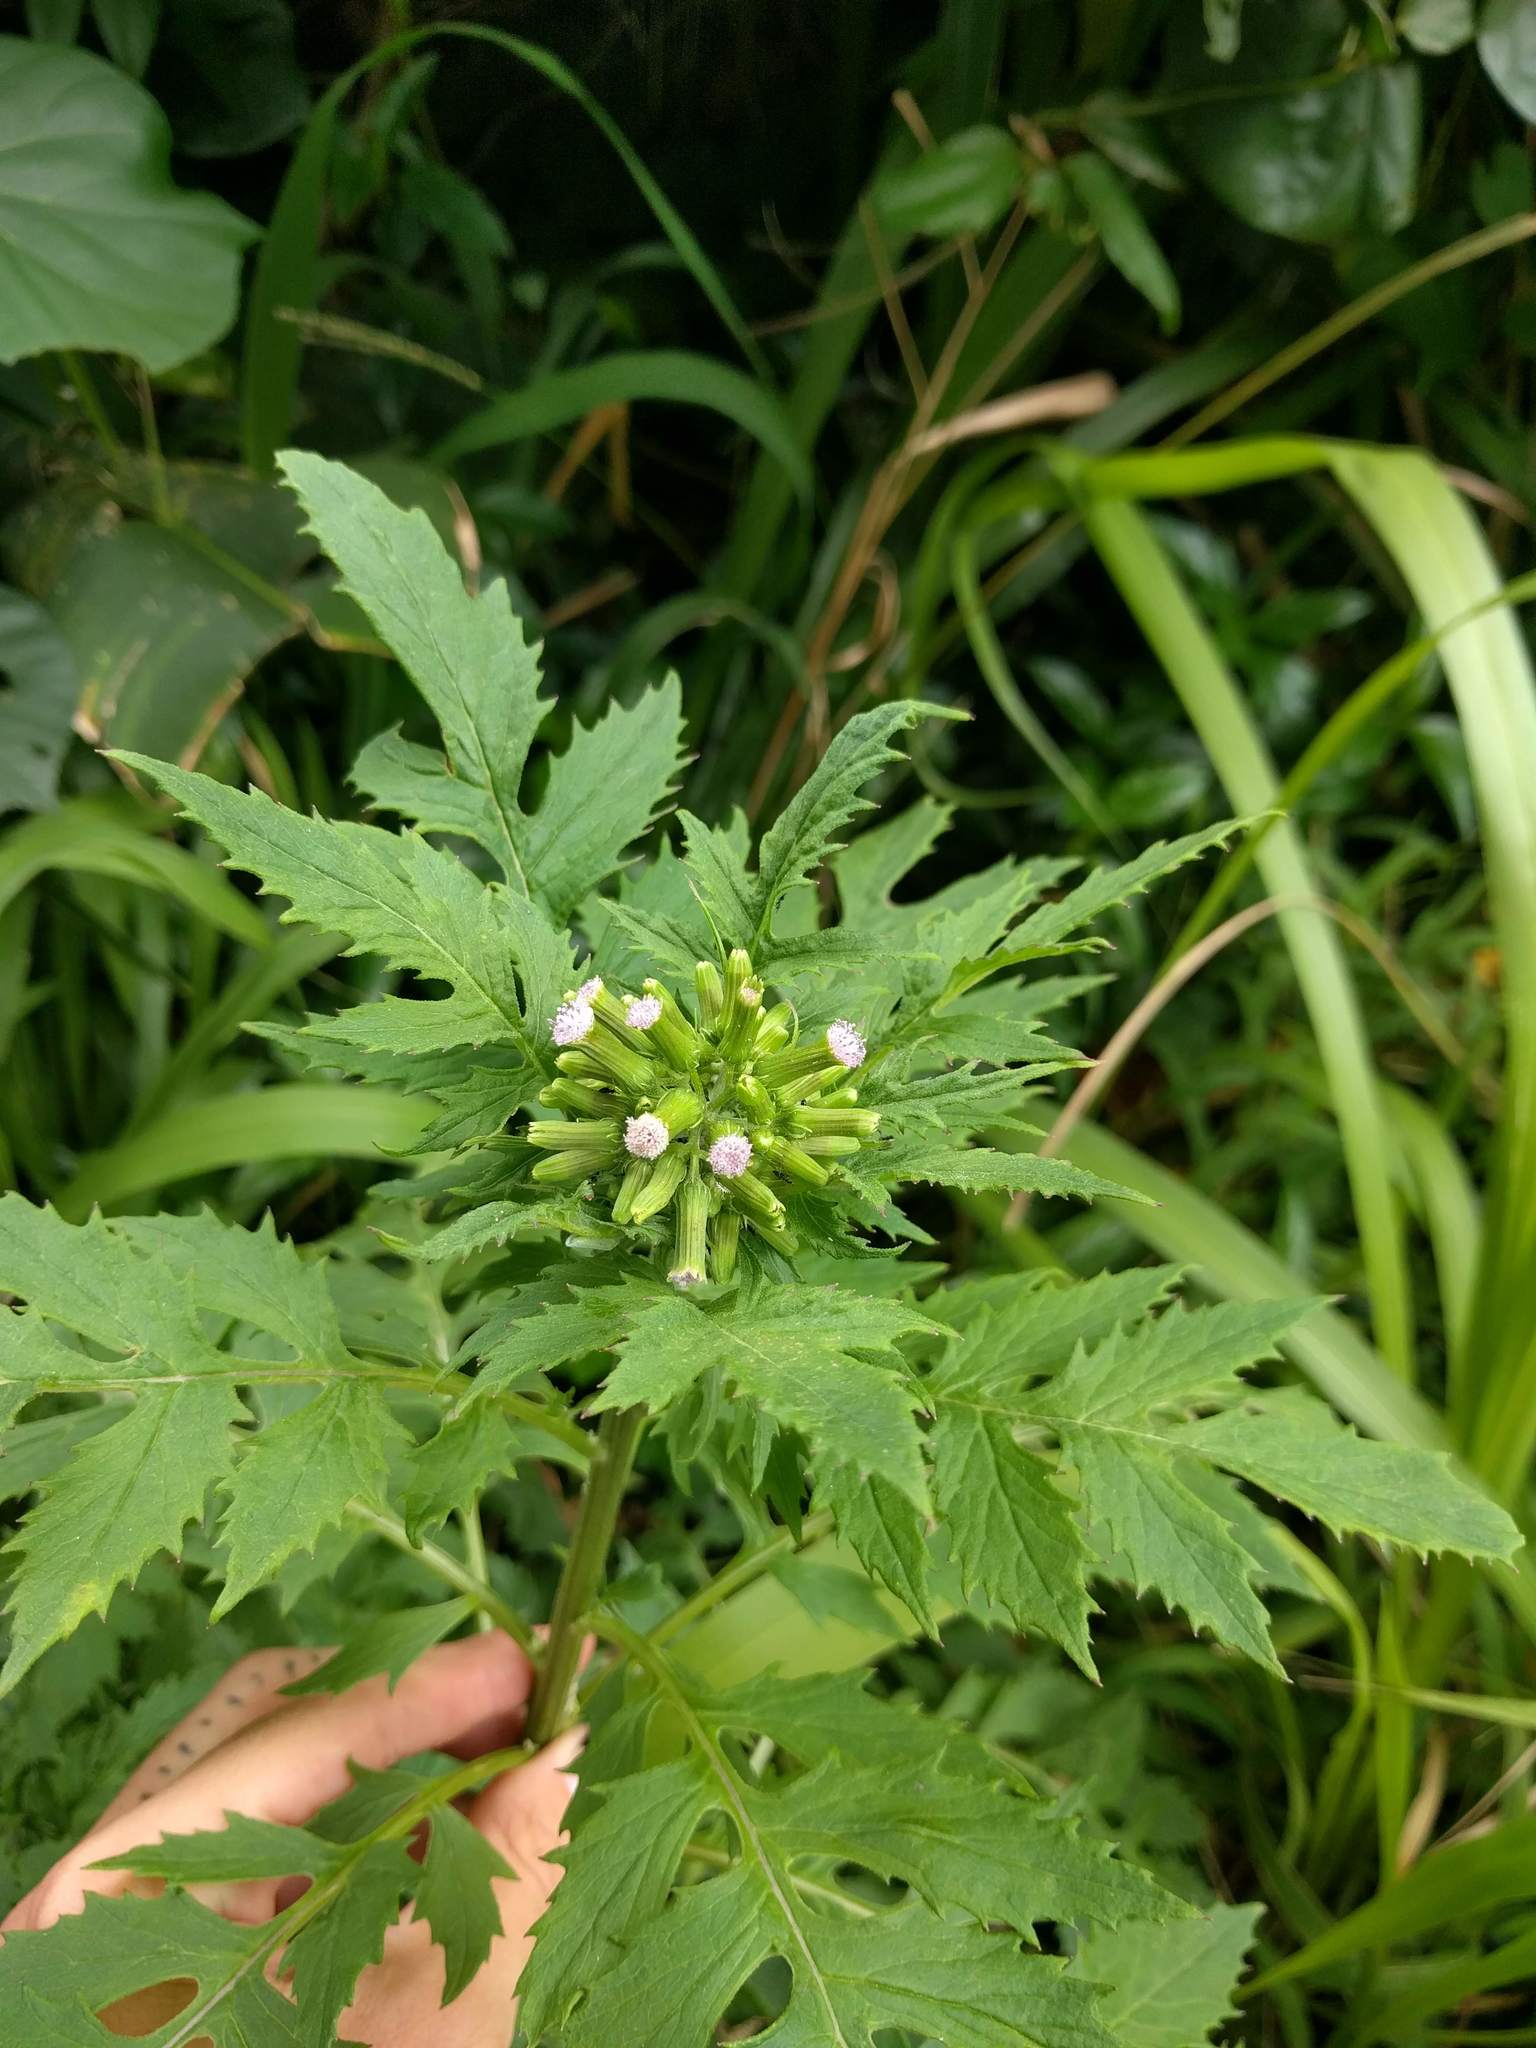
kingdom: Plantae
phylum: Tracheophyta
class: Magnoliopsida
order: Asterales
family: Asteraceae
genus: Erechtites
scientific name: Erechtites valerianifolius
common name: Tropical burnweed
